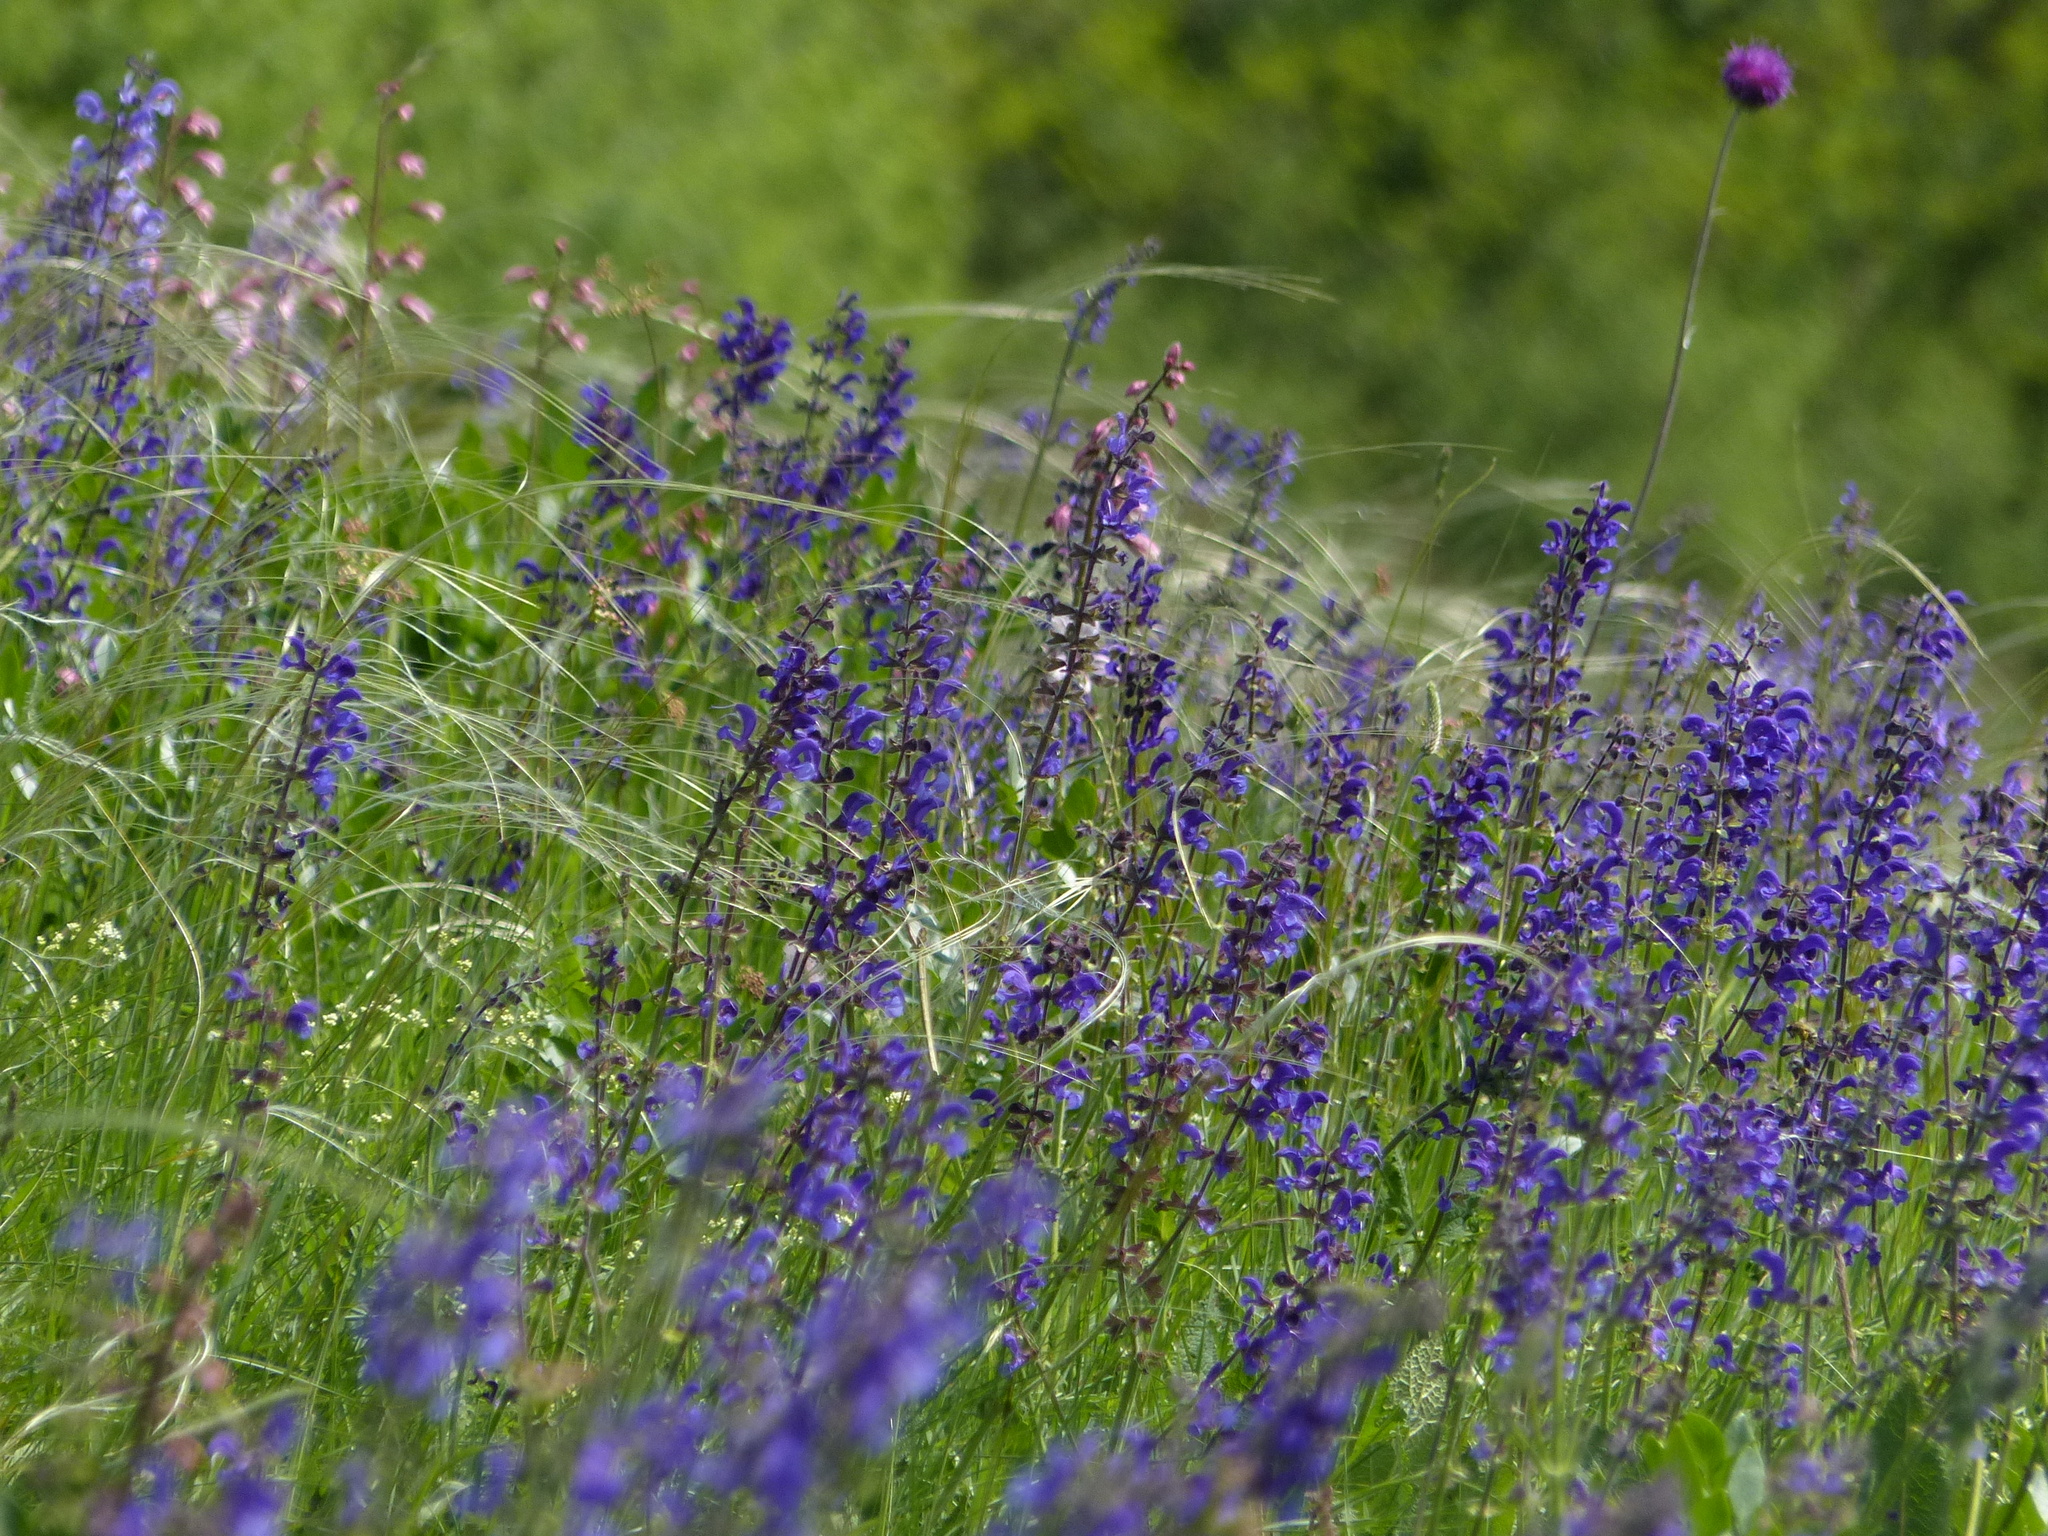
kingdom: Plantae
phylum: Tracheophyta
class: Magnoliopsida
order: Lamiales
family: Lamiaceae
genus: Salvia
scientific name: Salvia pratensis
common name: Meadow sage
